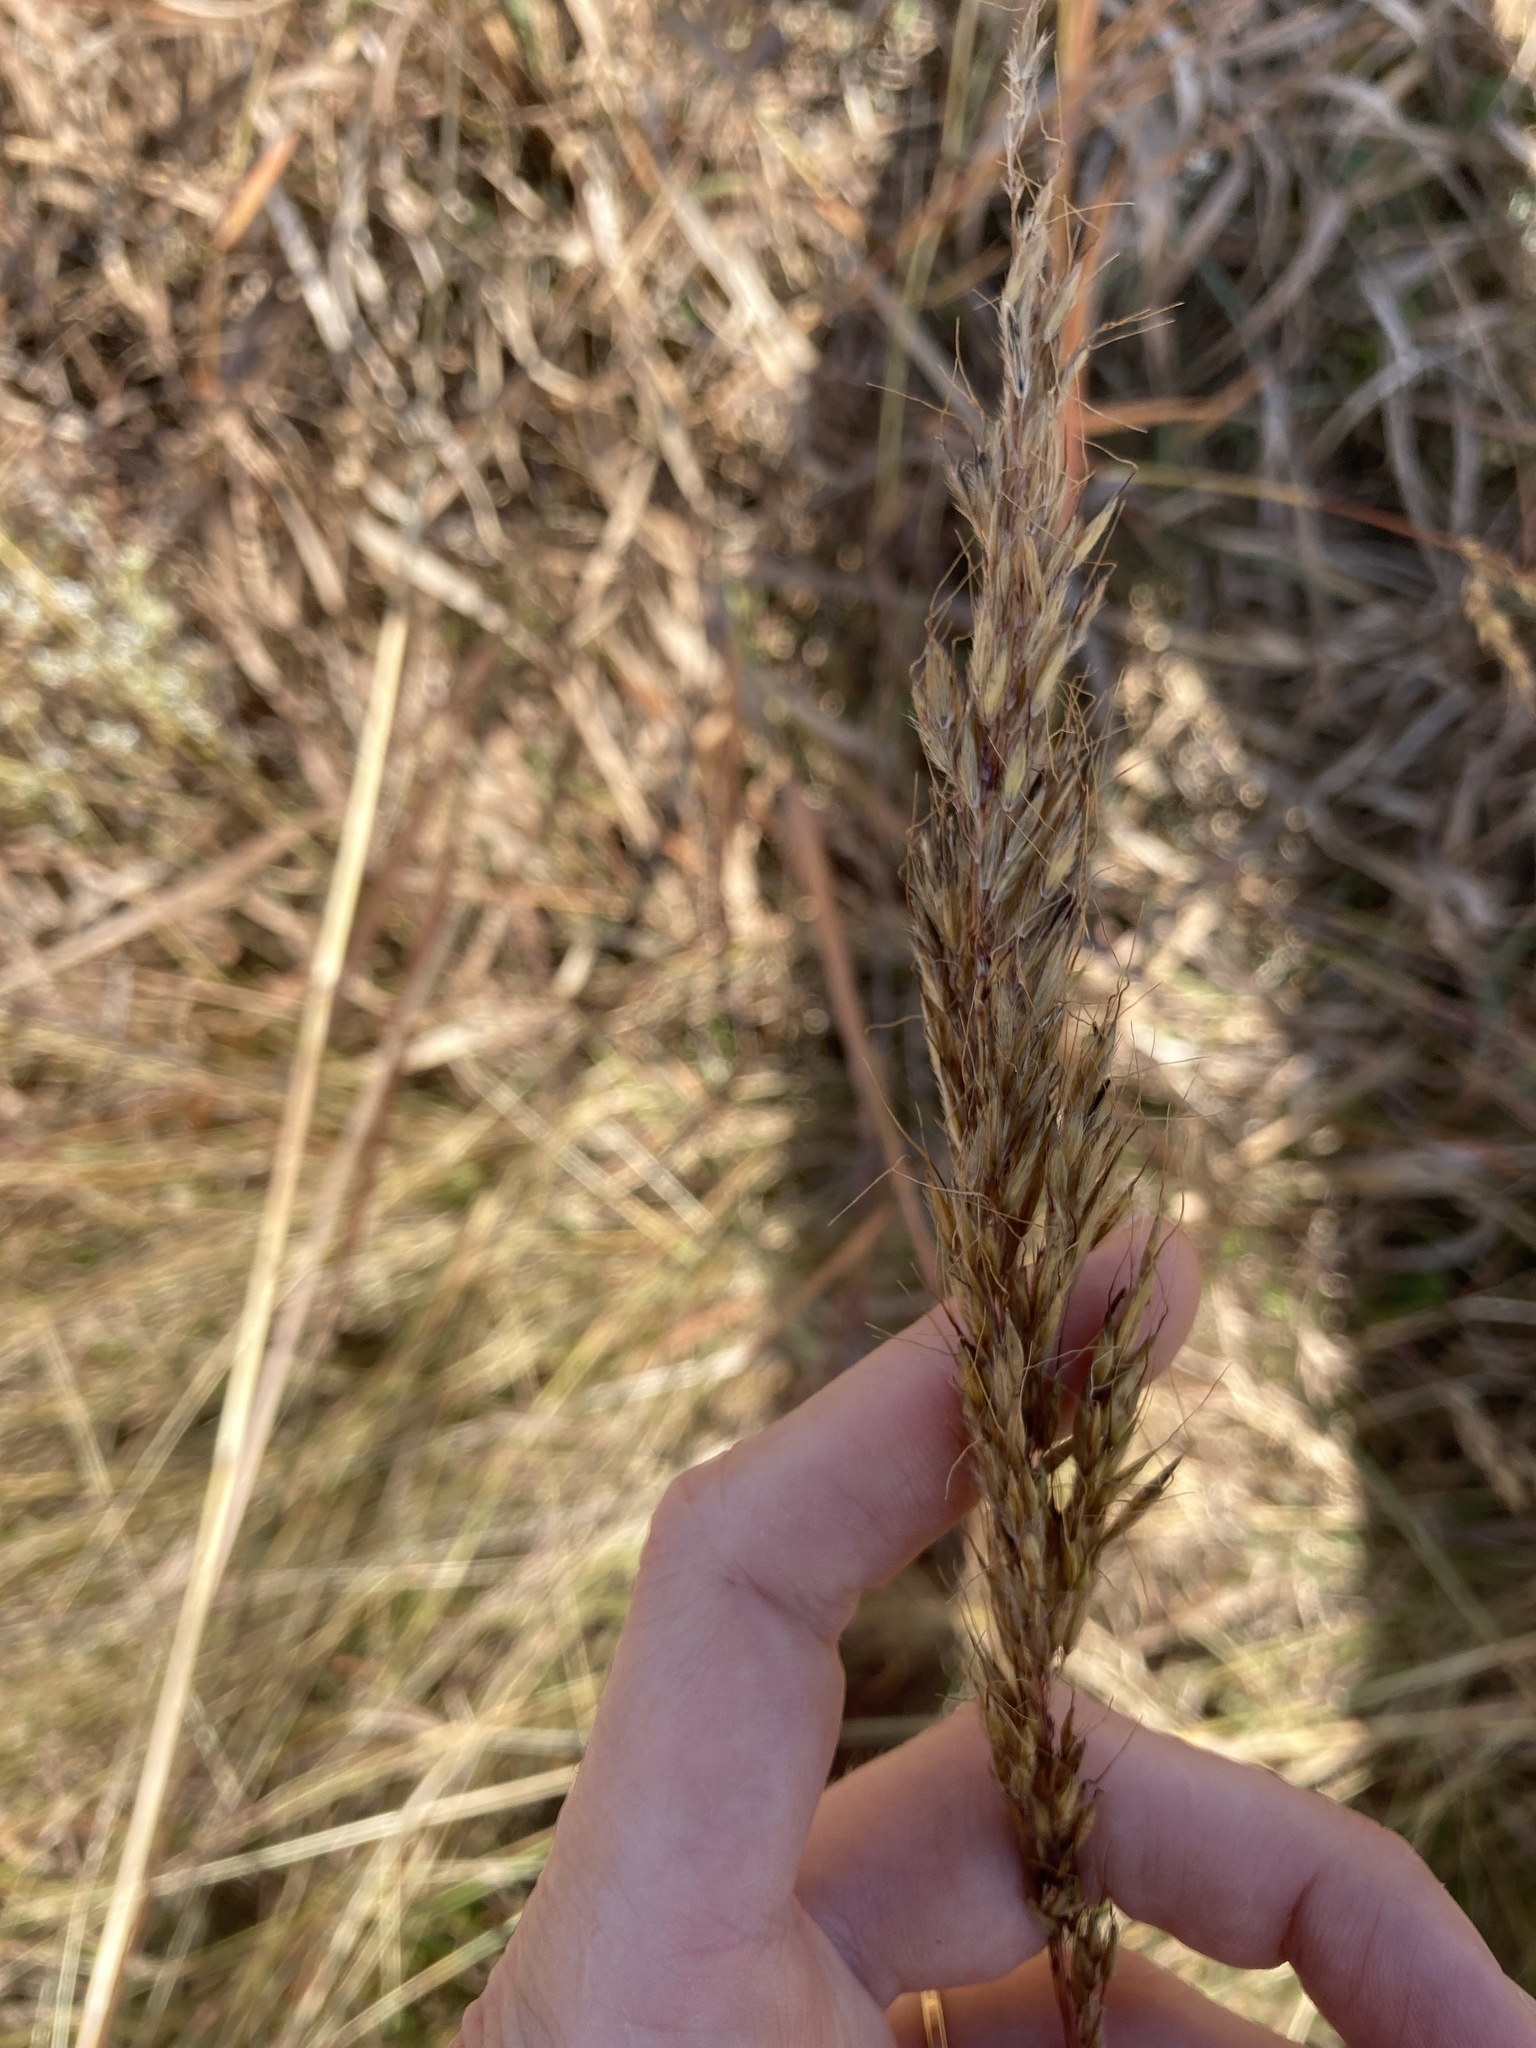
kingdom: Plantae
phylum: Tracheophyta
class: Liliopsida
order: Poales
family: Poaceae
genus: Sorghastrum
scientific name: Sorghastrum nutans
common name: Indian grass
